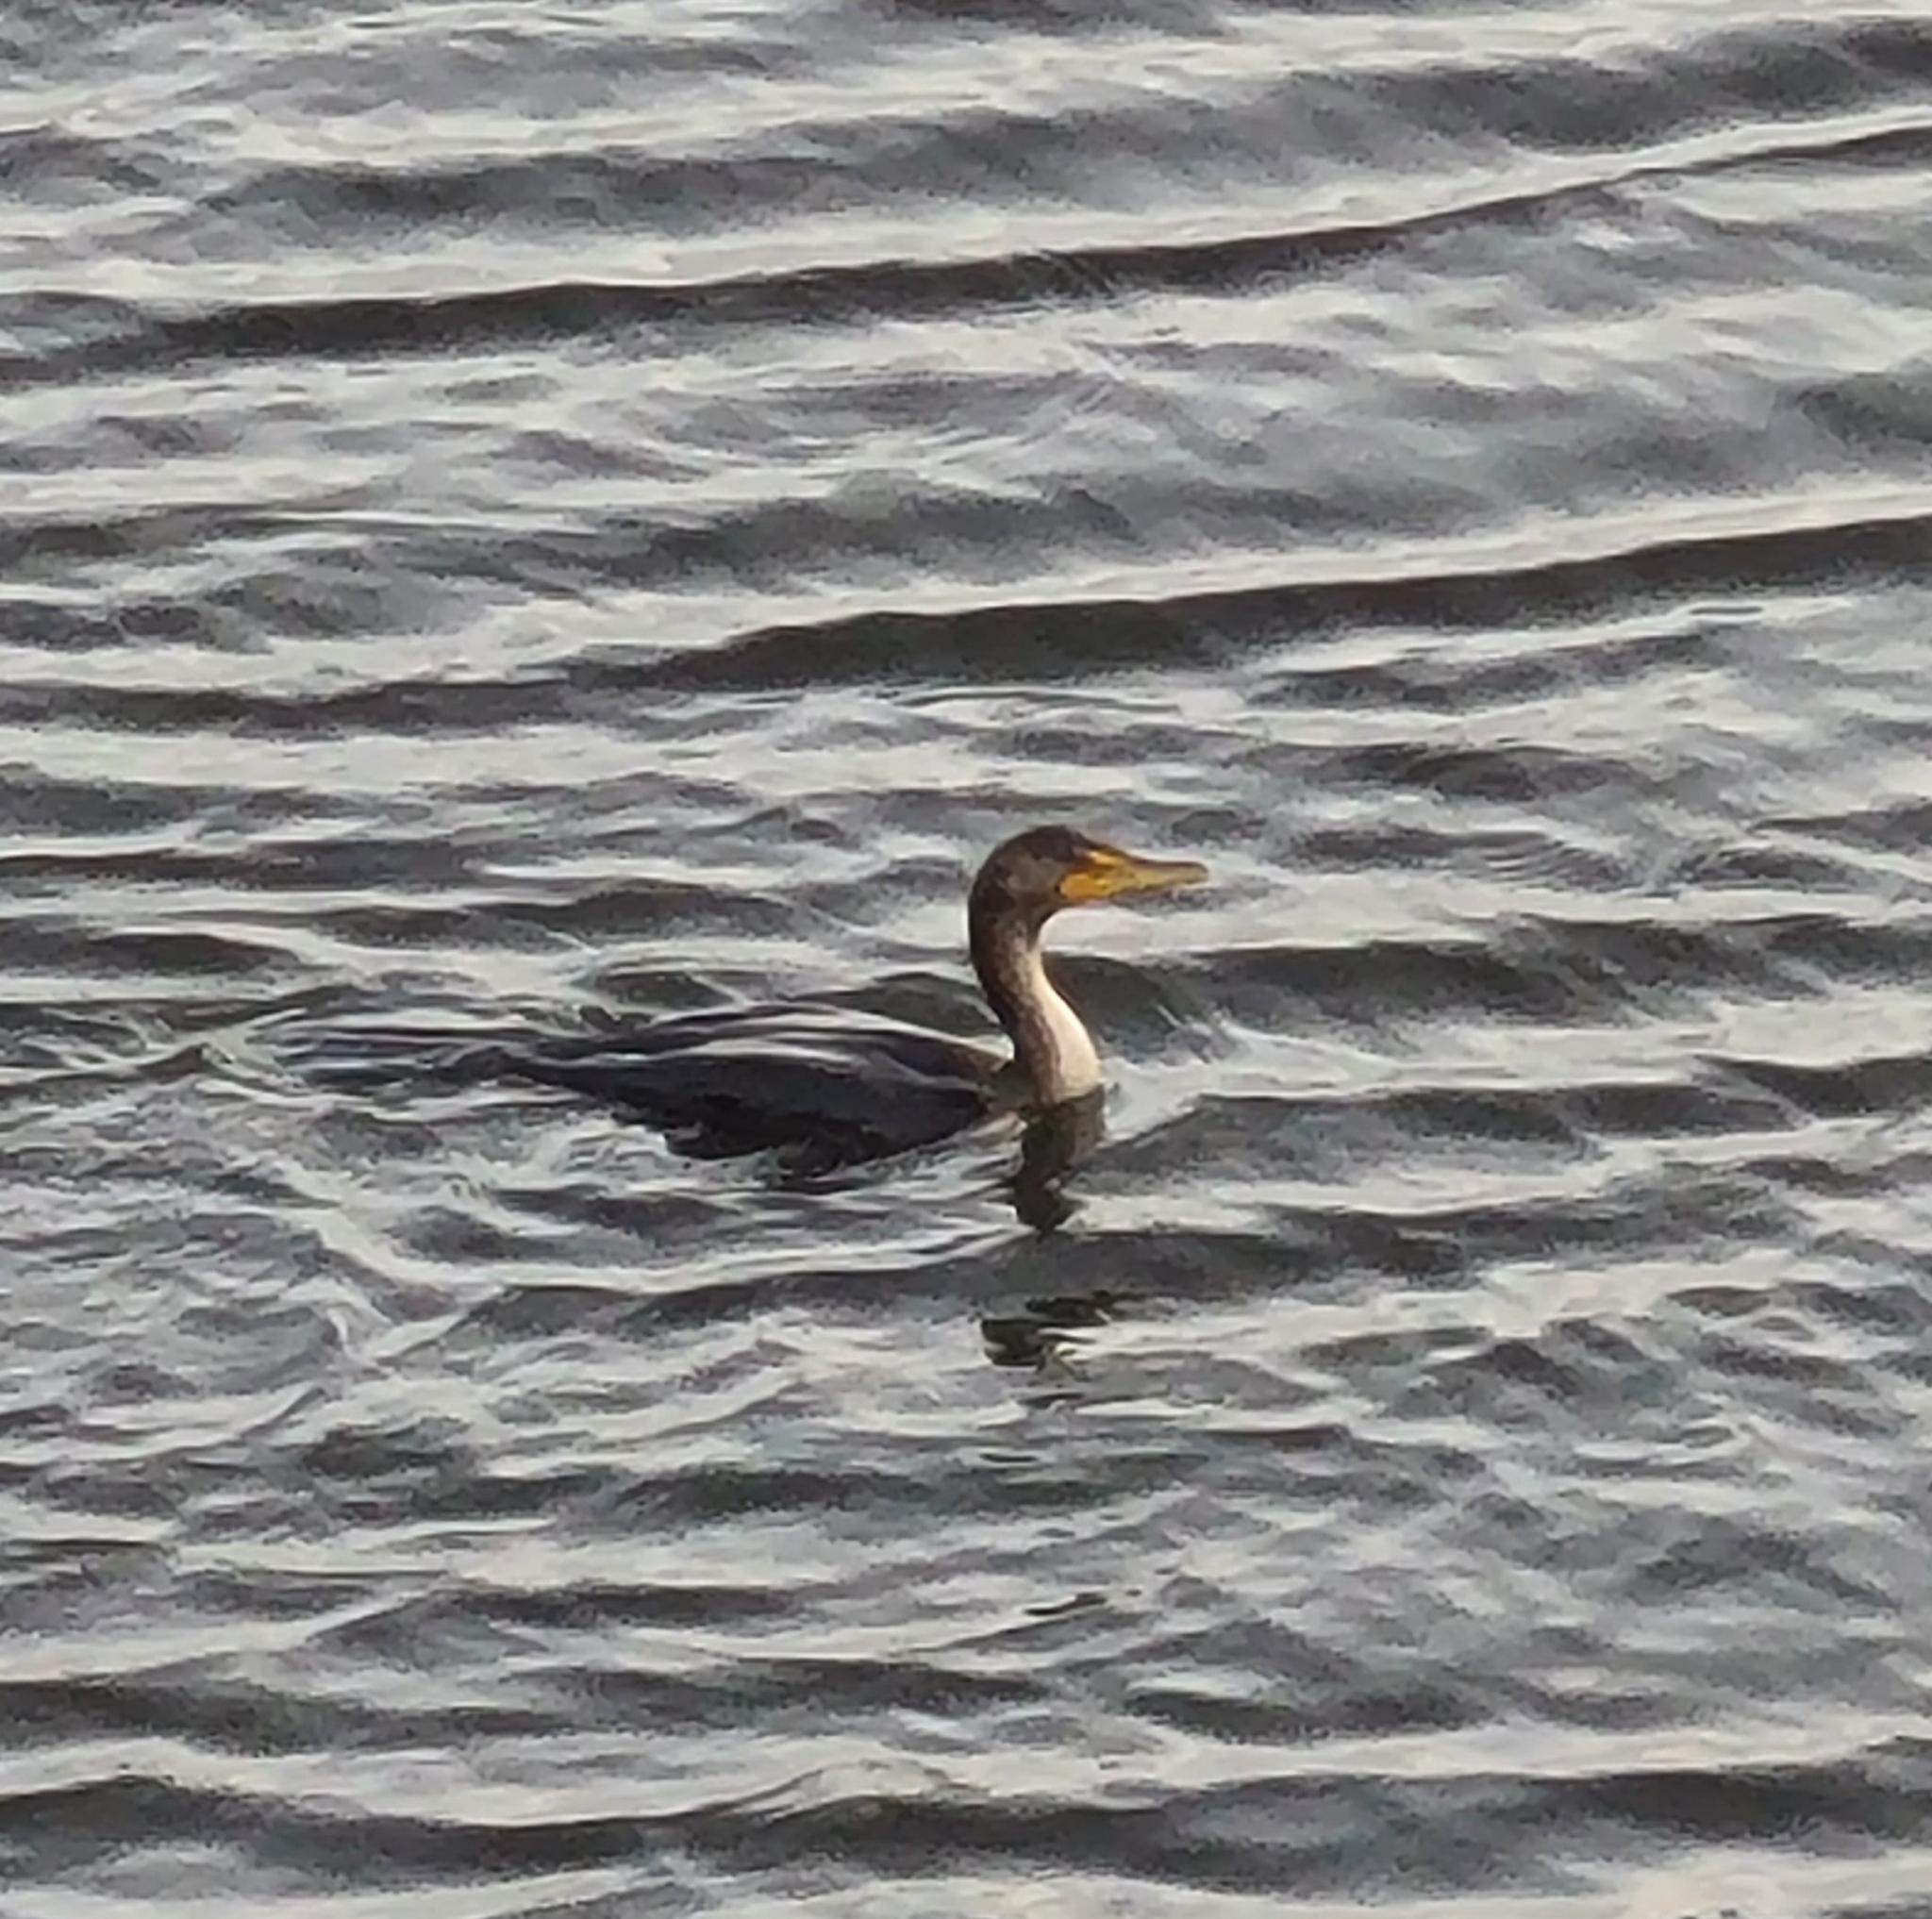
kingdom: Animalia
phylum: Chordata
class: Aves
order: Suliformes
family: Phalacrocoracidae
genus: Phalacrocorax
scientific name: Phalacrocorax auritus
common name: Double-crested cormorant
